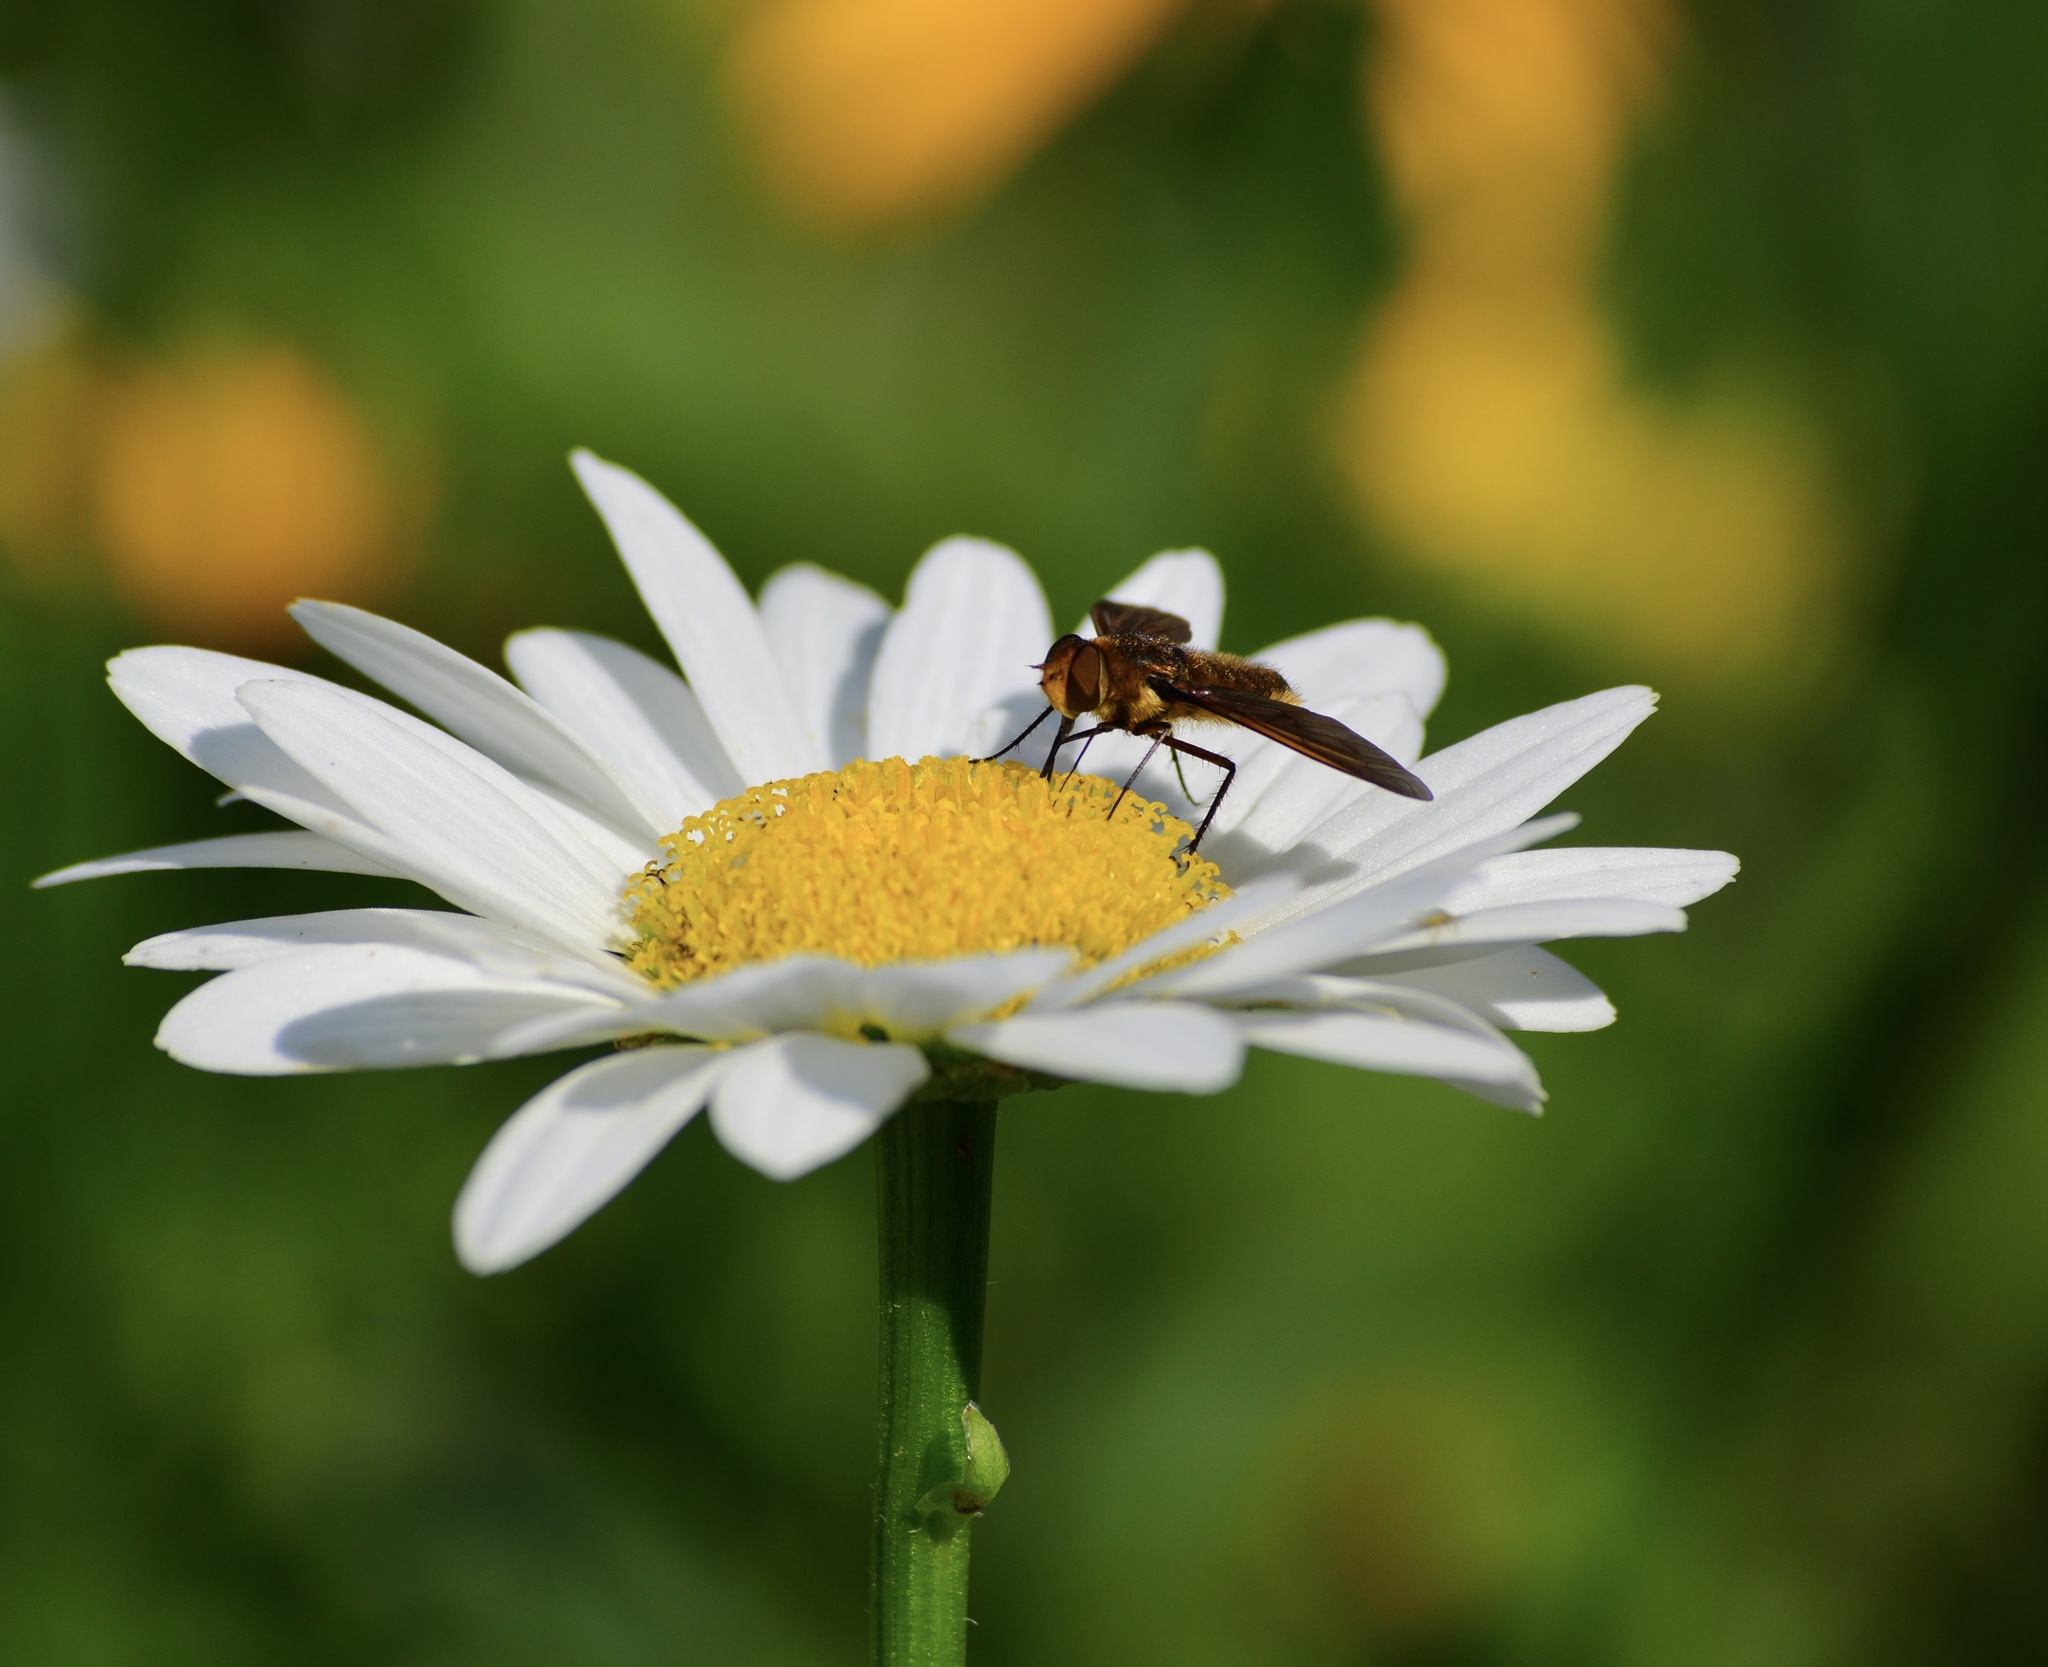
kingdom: Animalia
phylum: Arthropoda
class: Insecta
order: Diptera
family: Bombyliidae
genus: Poecilanthrax
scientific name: Poecilanthrax tegminipennis
